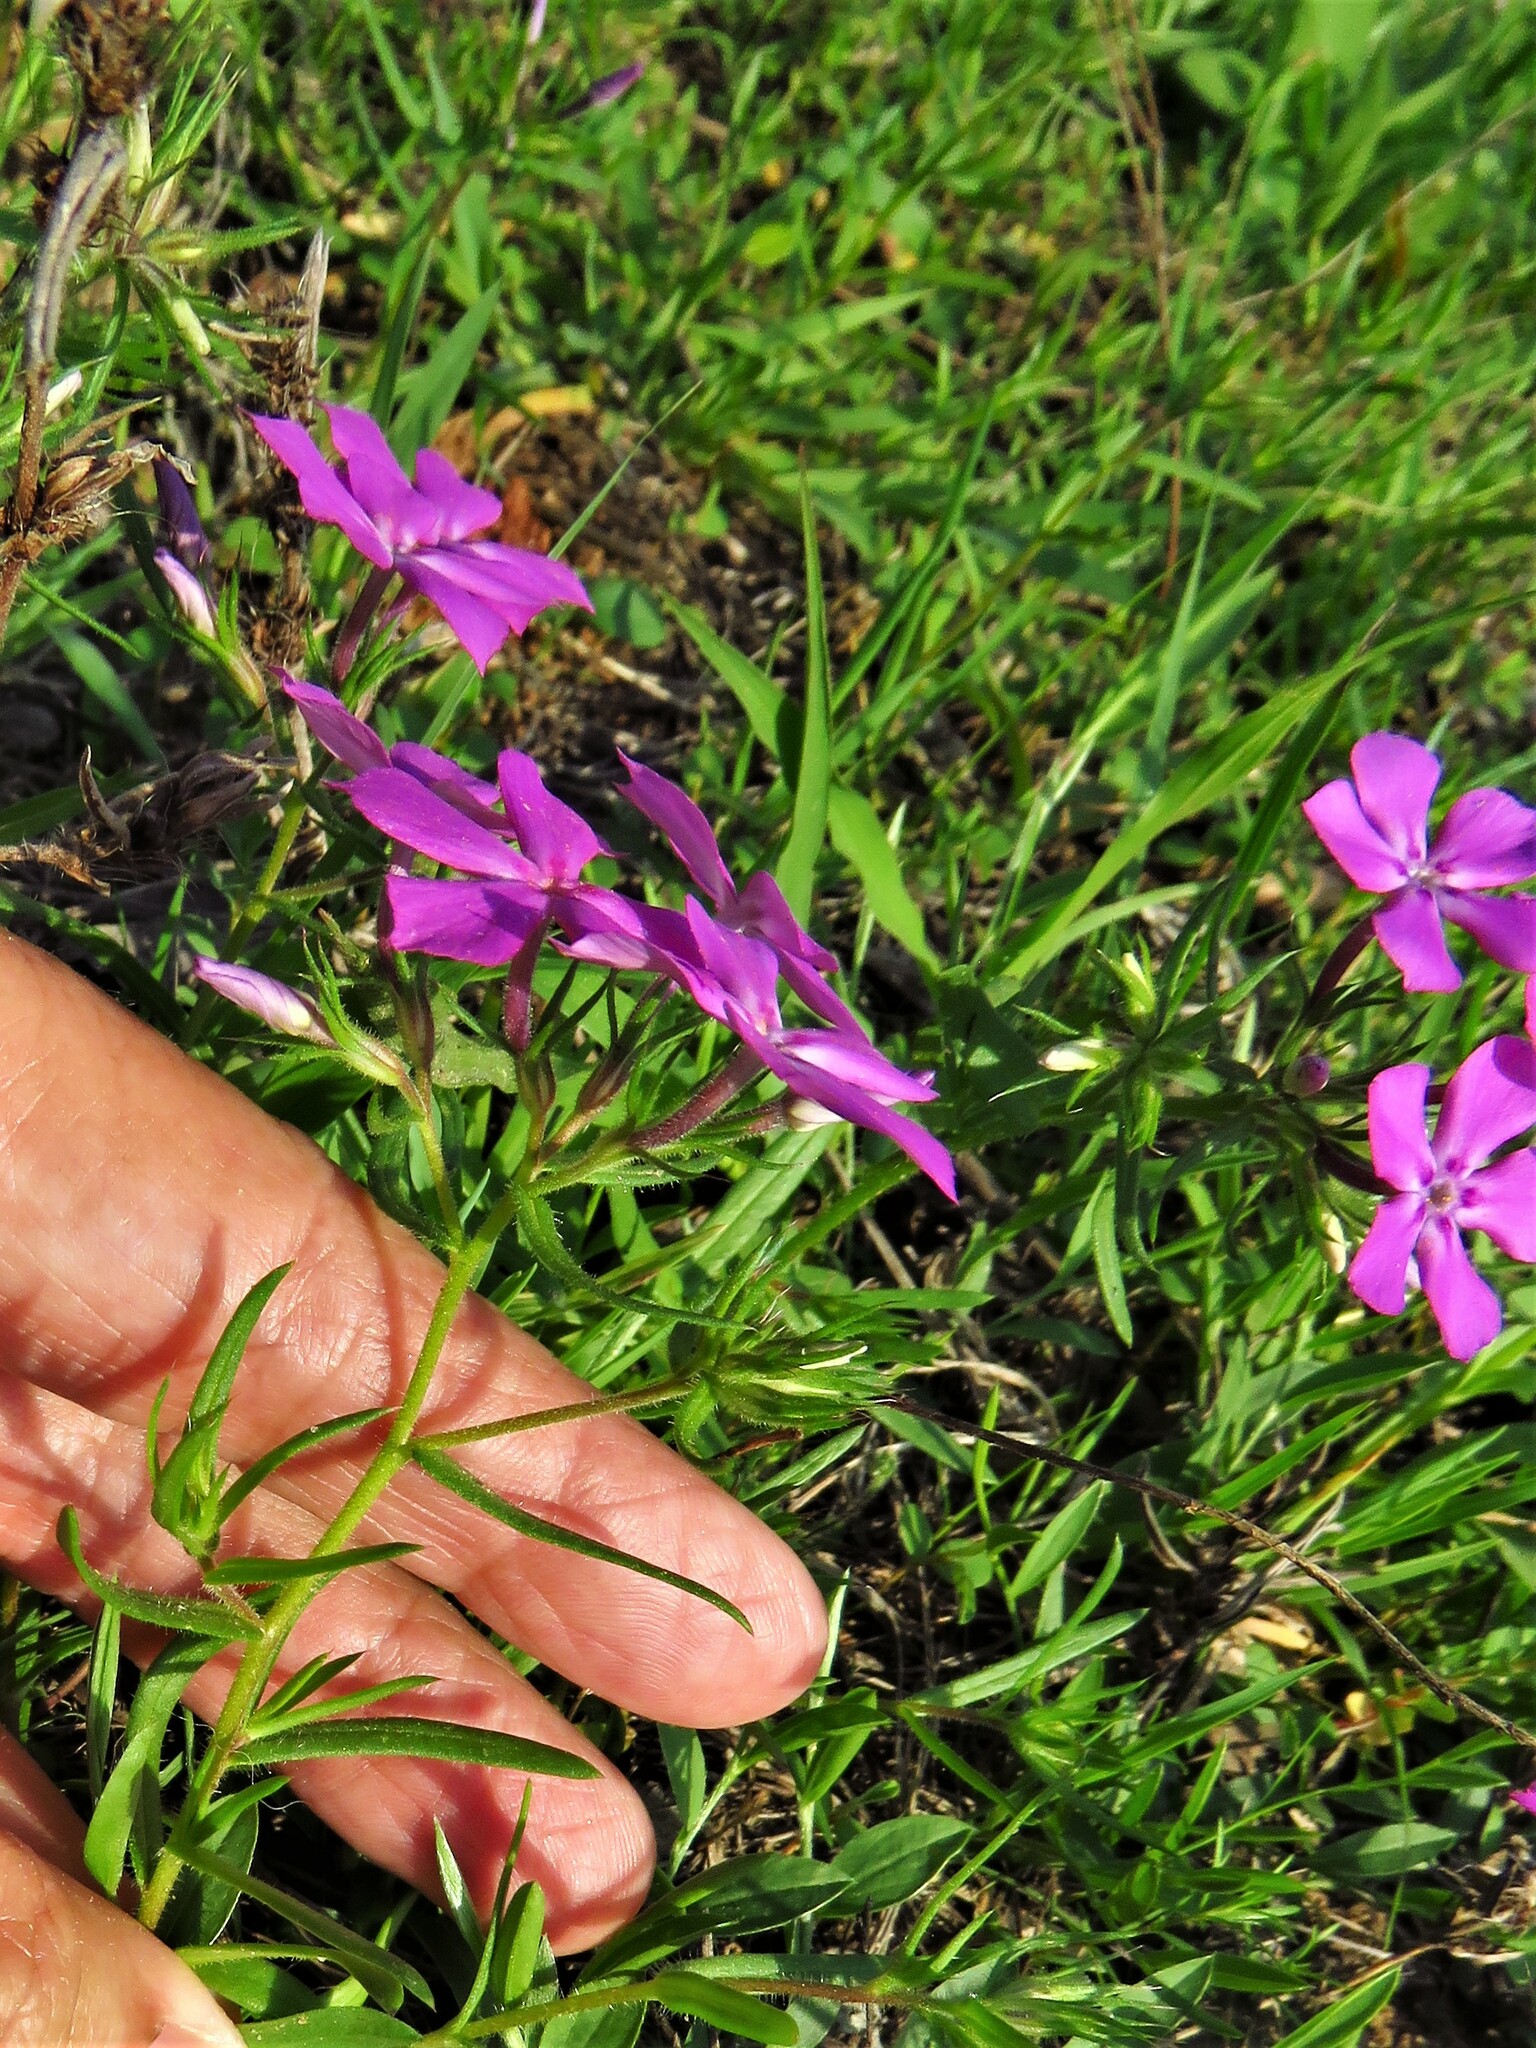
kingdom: Plantae
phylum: Tracheophyta
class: Magnoliopsida
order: Ericales
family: Polemoniaceae
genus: Phlox
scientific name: Phlox cuspidata
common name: Pointed phlox
